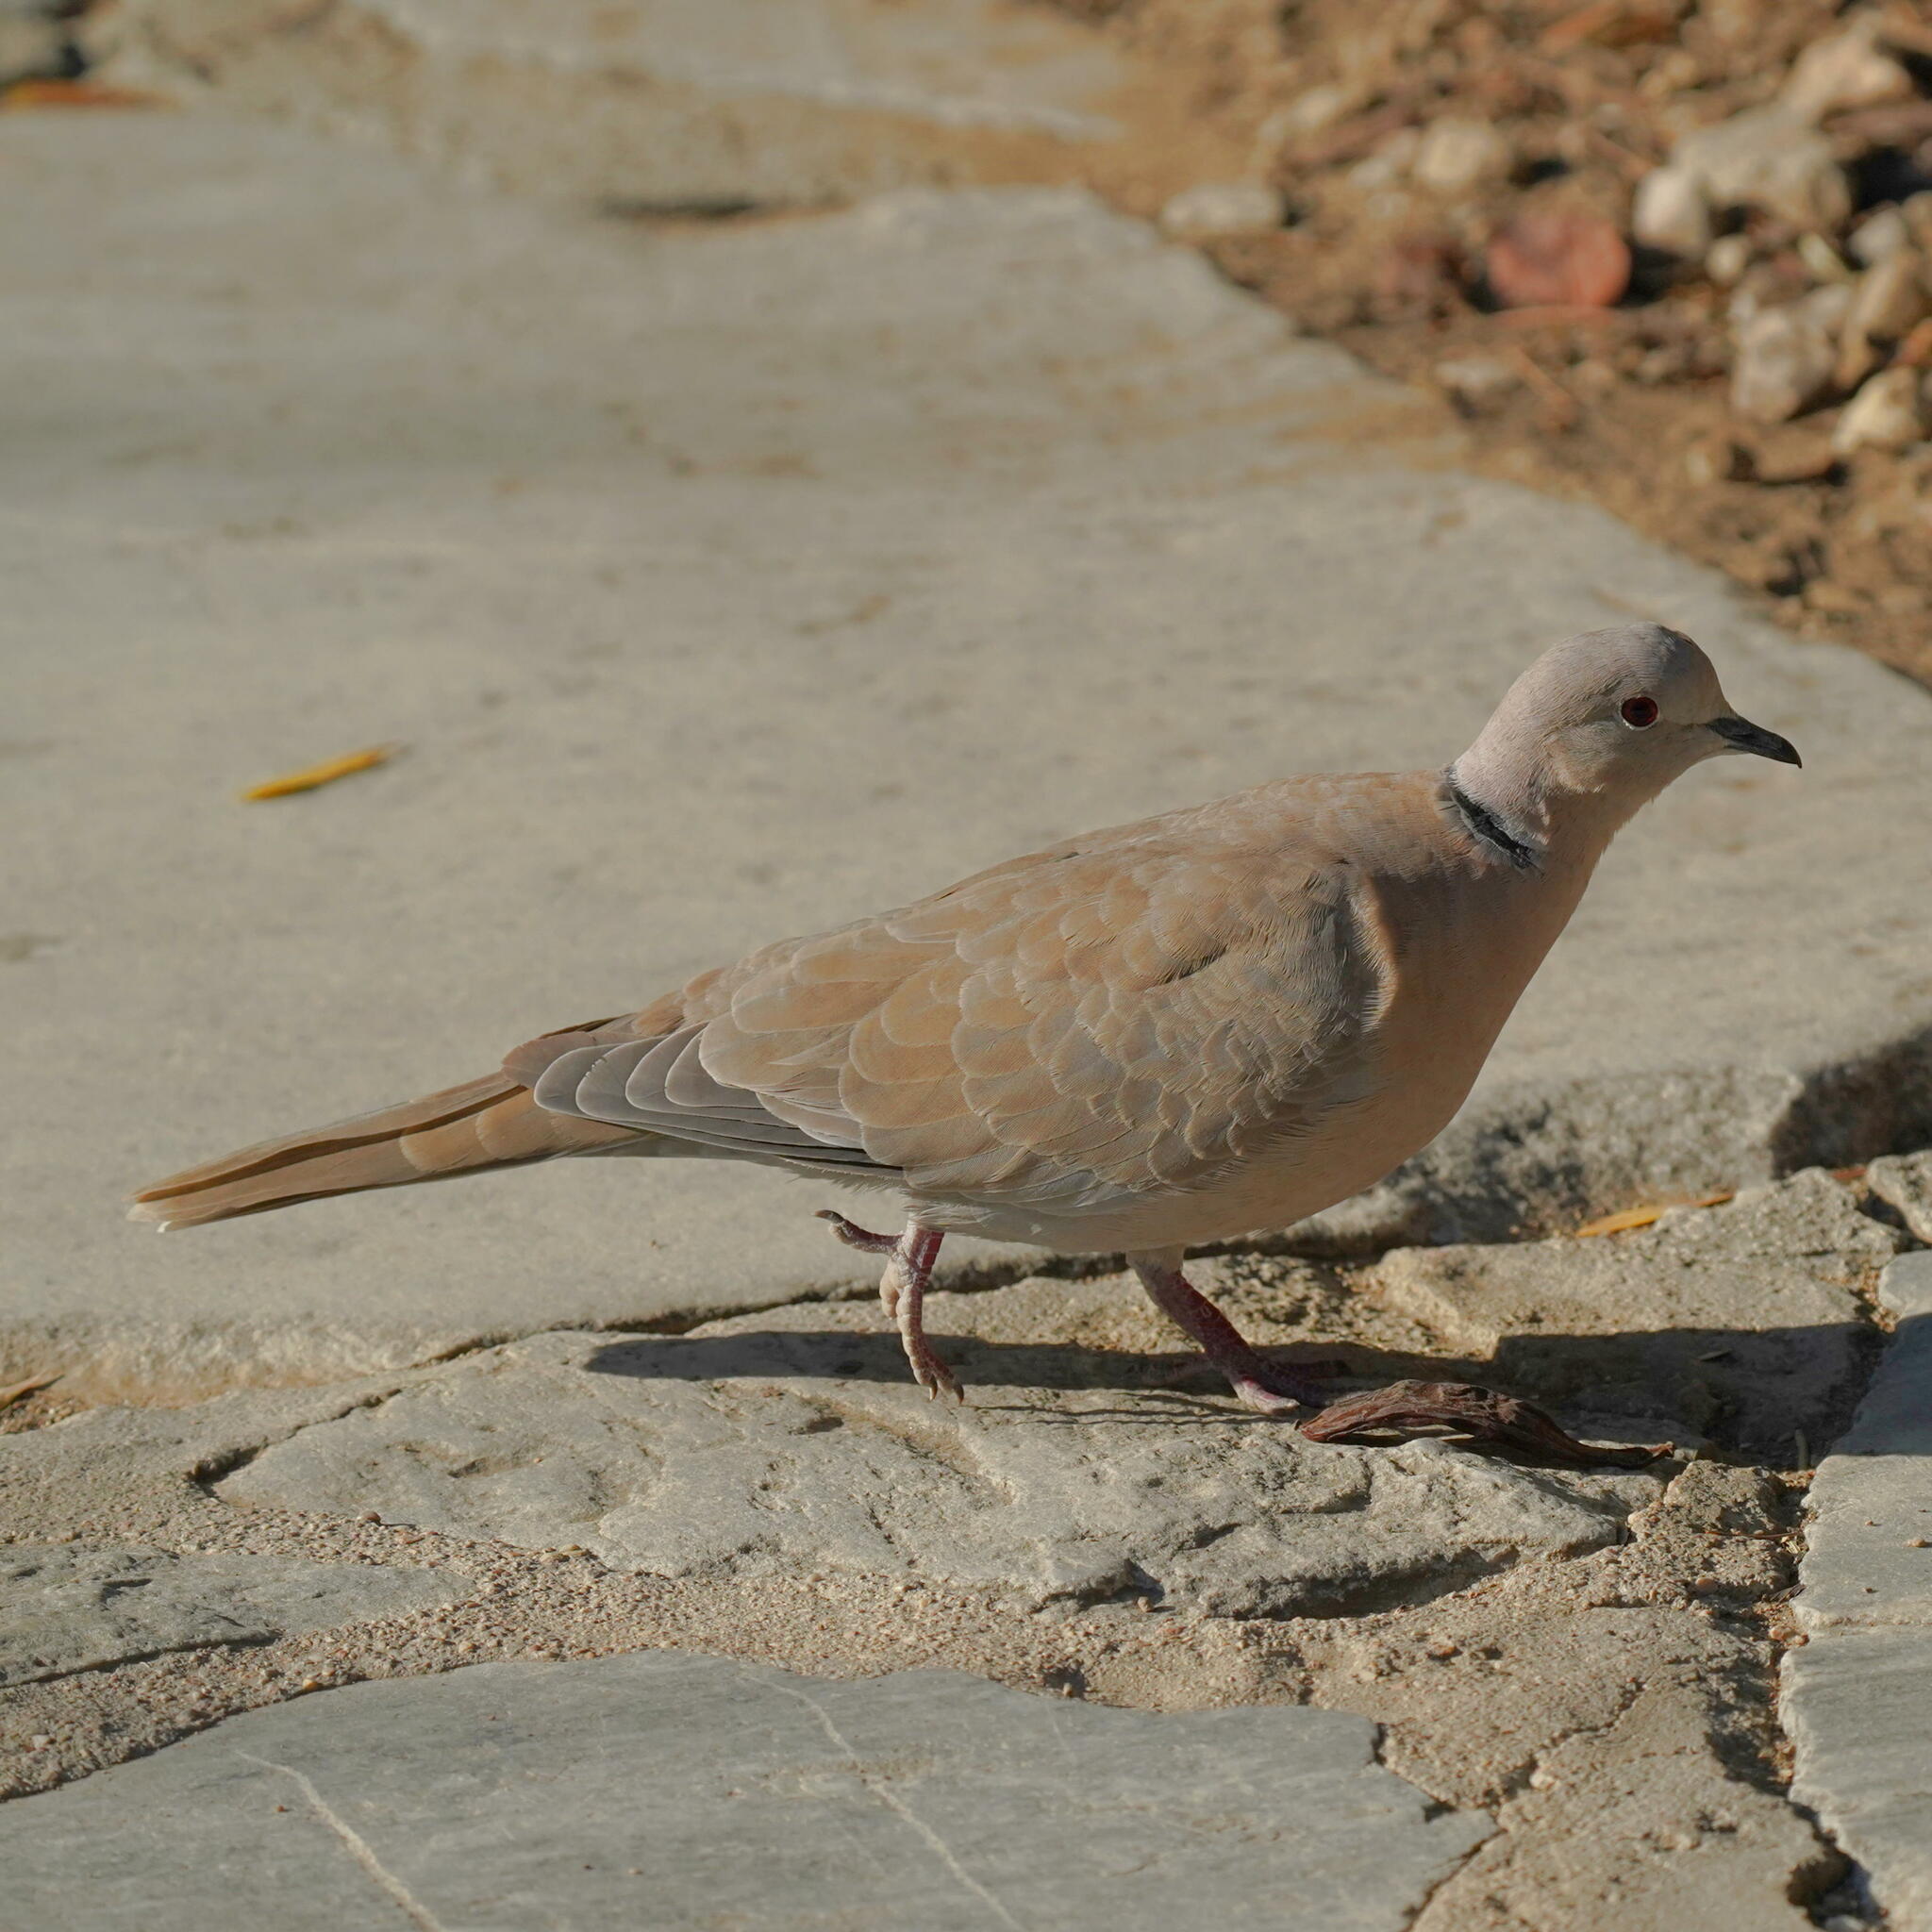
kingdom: Animalia
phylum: Chordata
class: Aves
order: Columbiformes
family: Columbidae
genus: Streptopelia
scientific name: Streptopelia decaocto
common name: Eurasian collared dove
